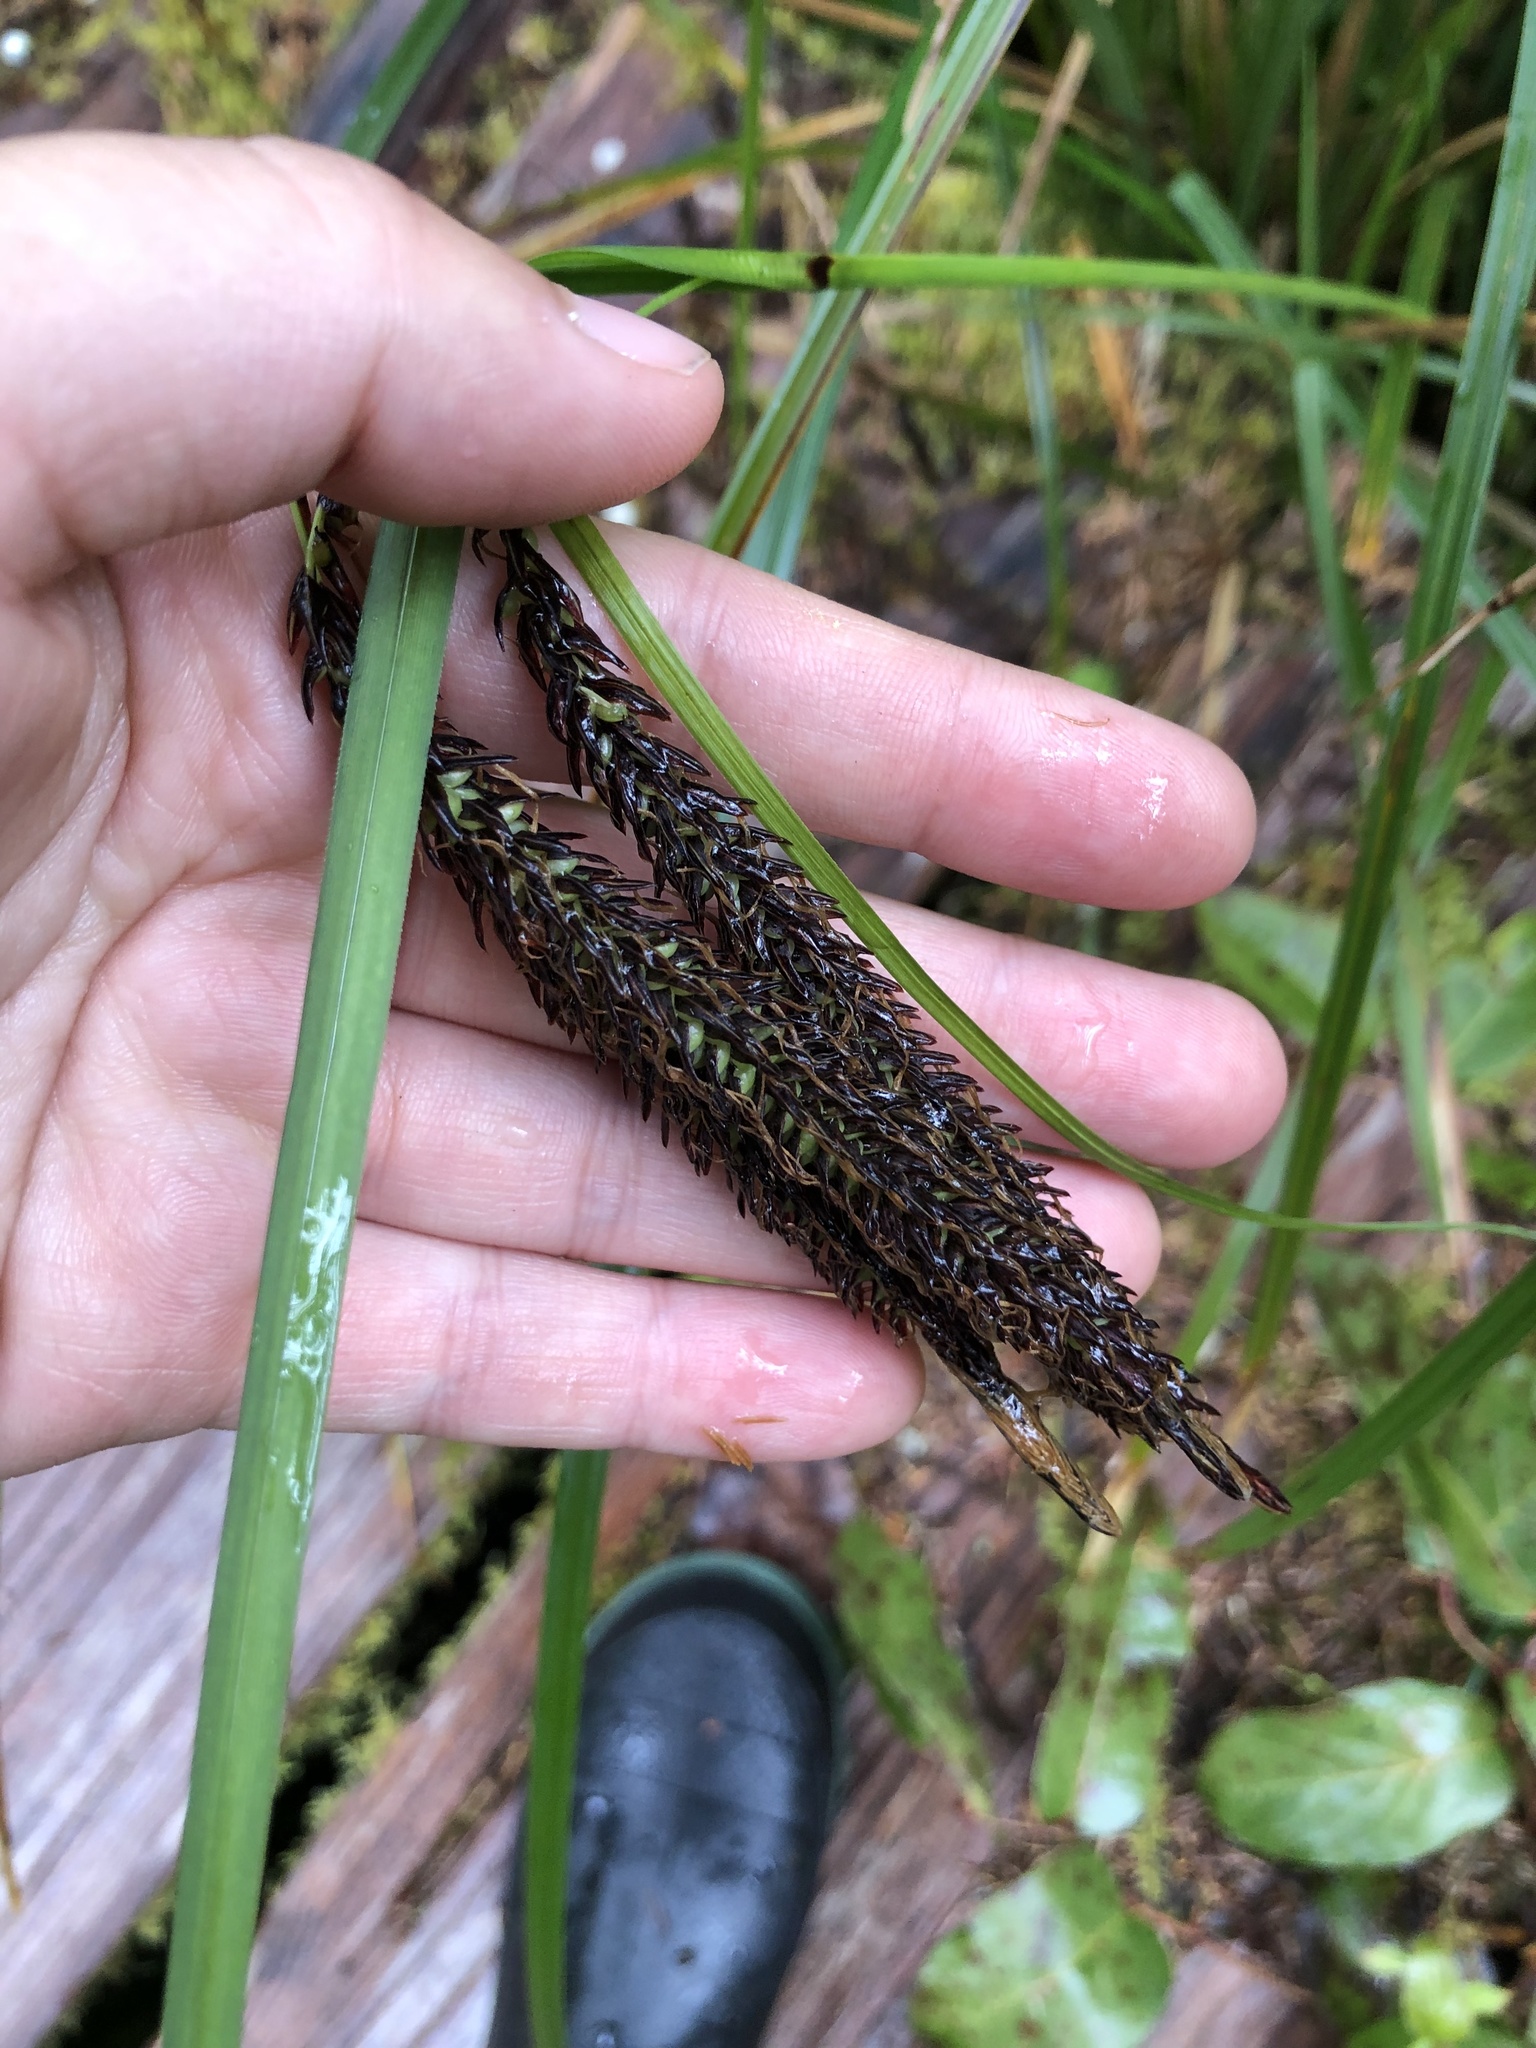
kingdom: Plantae
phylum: Tracheophyta
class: Liliopsida
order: Poales
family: Cyperaceae
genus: Carex
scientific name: Carex obnupta
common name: Slough sedge
